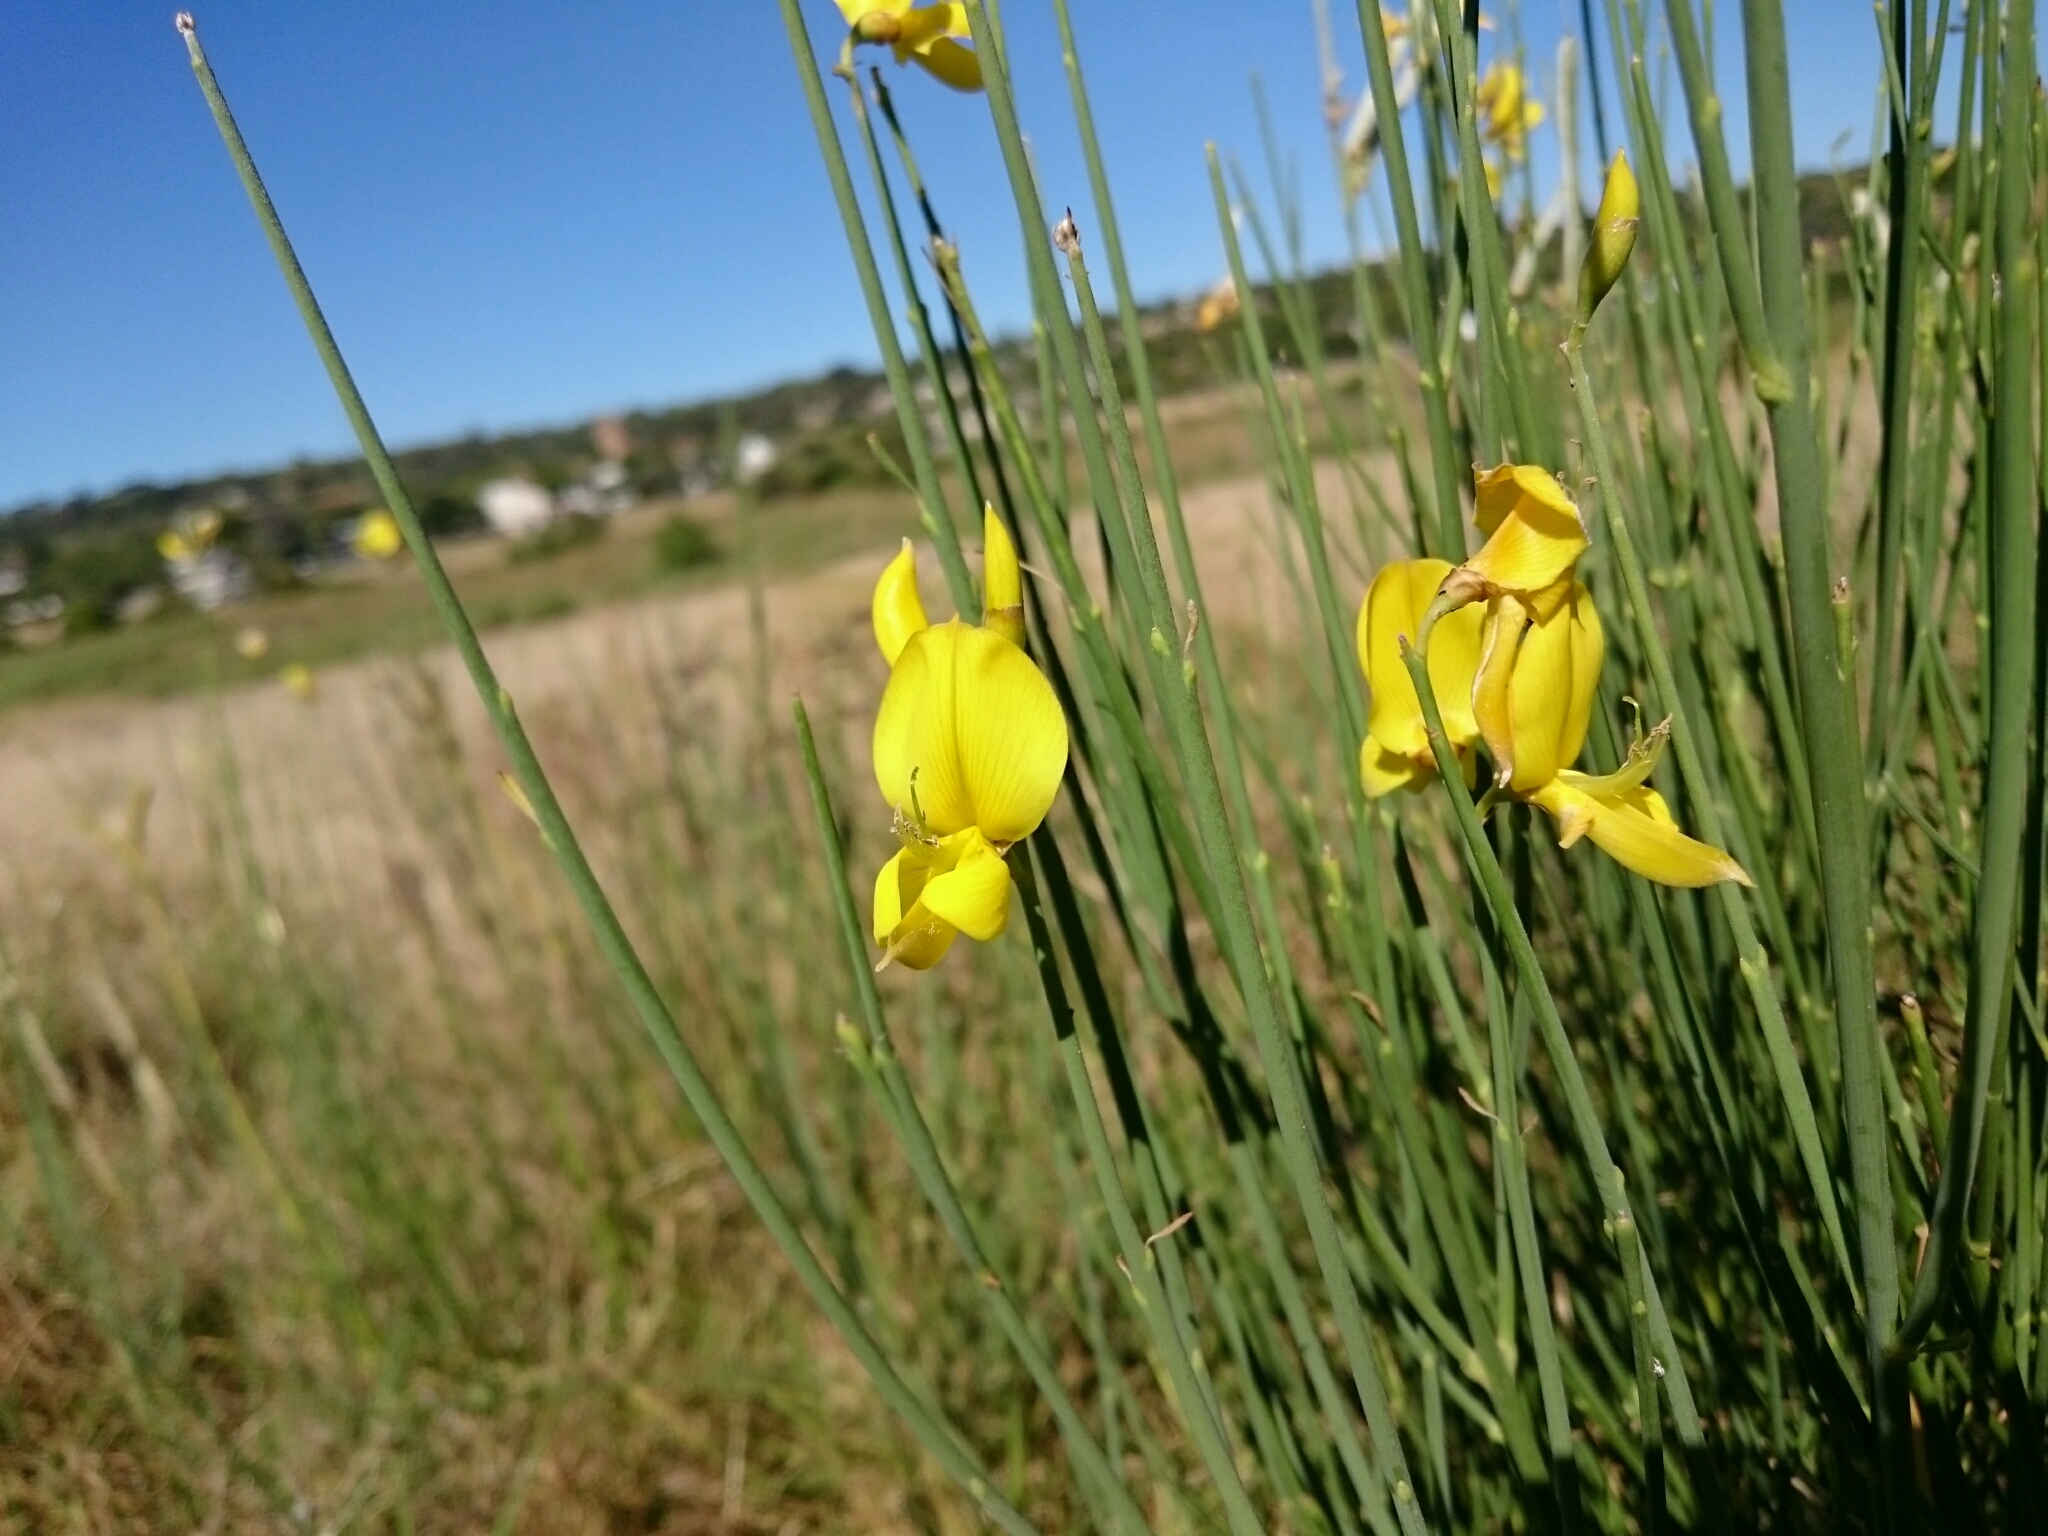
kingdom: Plantae
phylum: Tracheophyta
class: Magnoliopsida
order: Fabales
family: Fabaceae
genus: Spartium
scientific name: Spartium junceum
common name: Spanish broom
